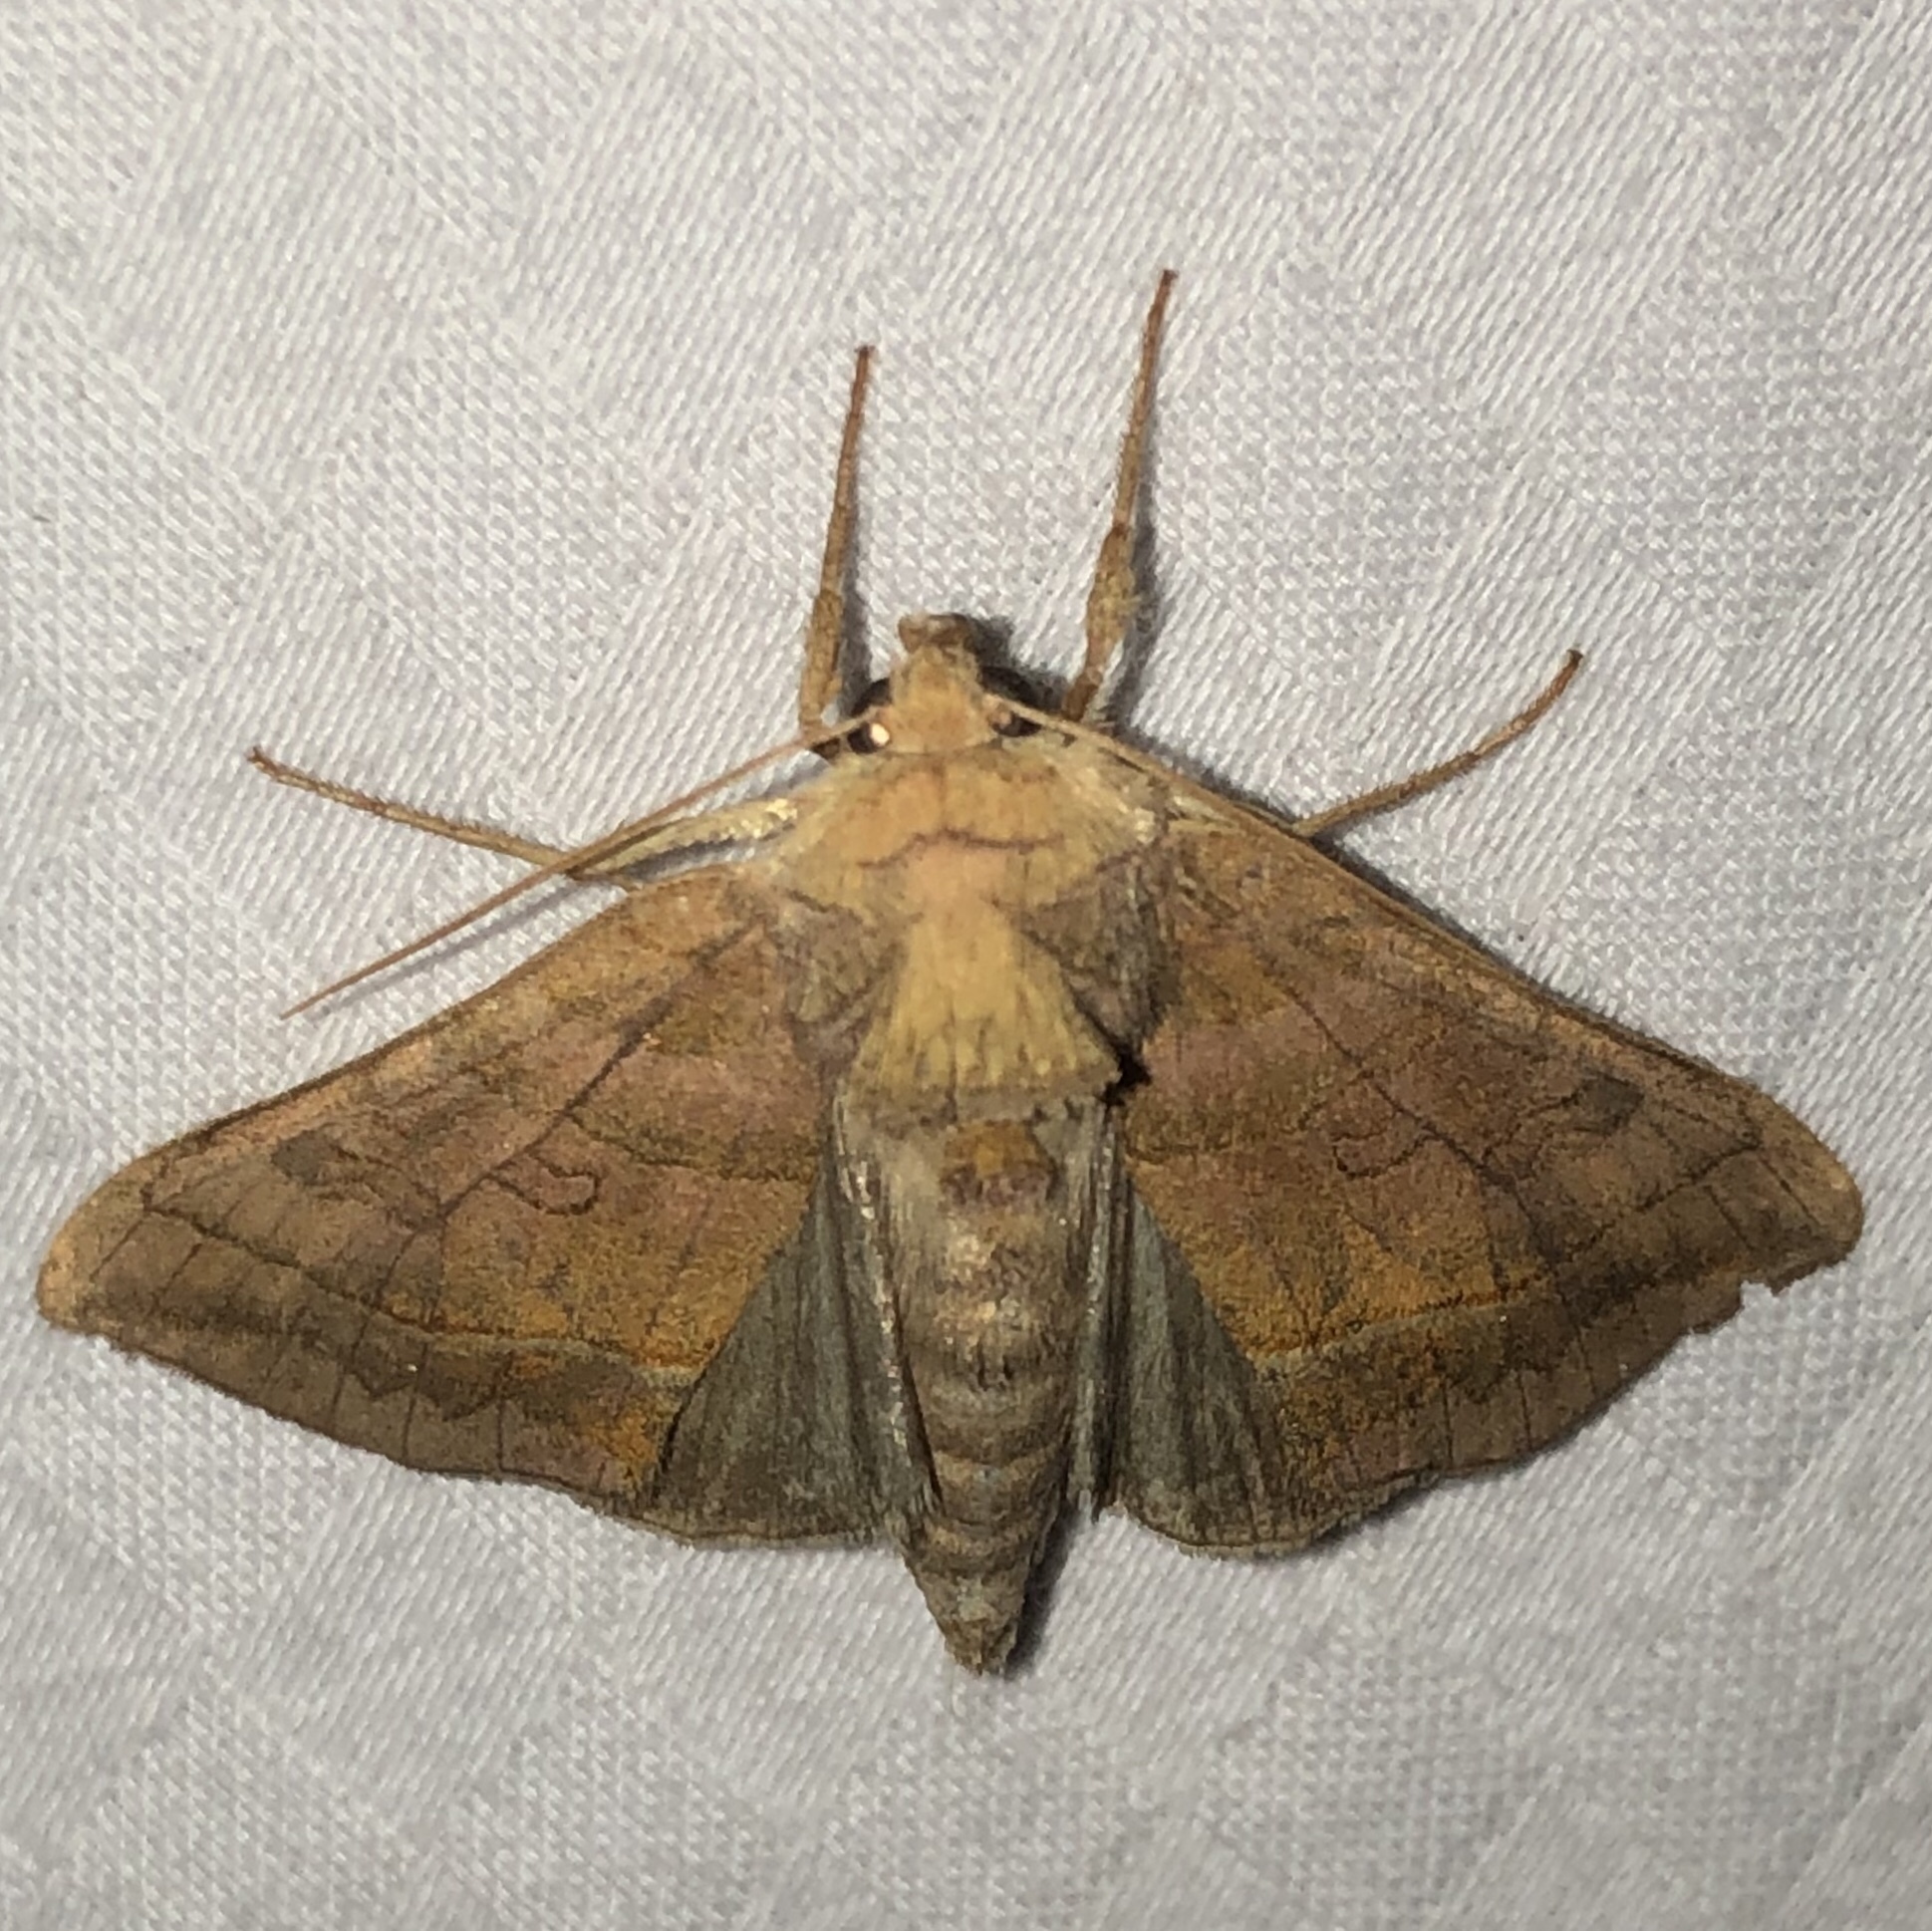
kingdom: Animalia
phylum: Arthropoda
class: Insecta
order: Lepidoptera
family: Noctuidae
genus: Diachrysia
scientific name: Diachrysia aereoides
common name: Dark-spotted looper moth
